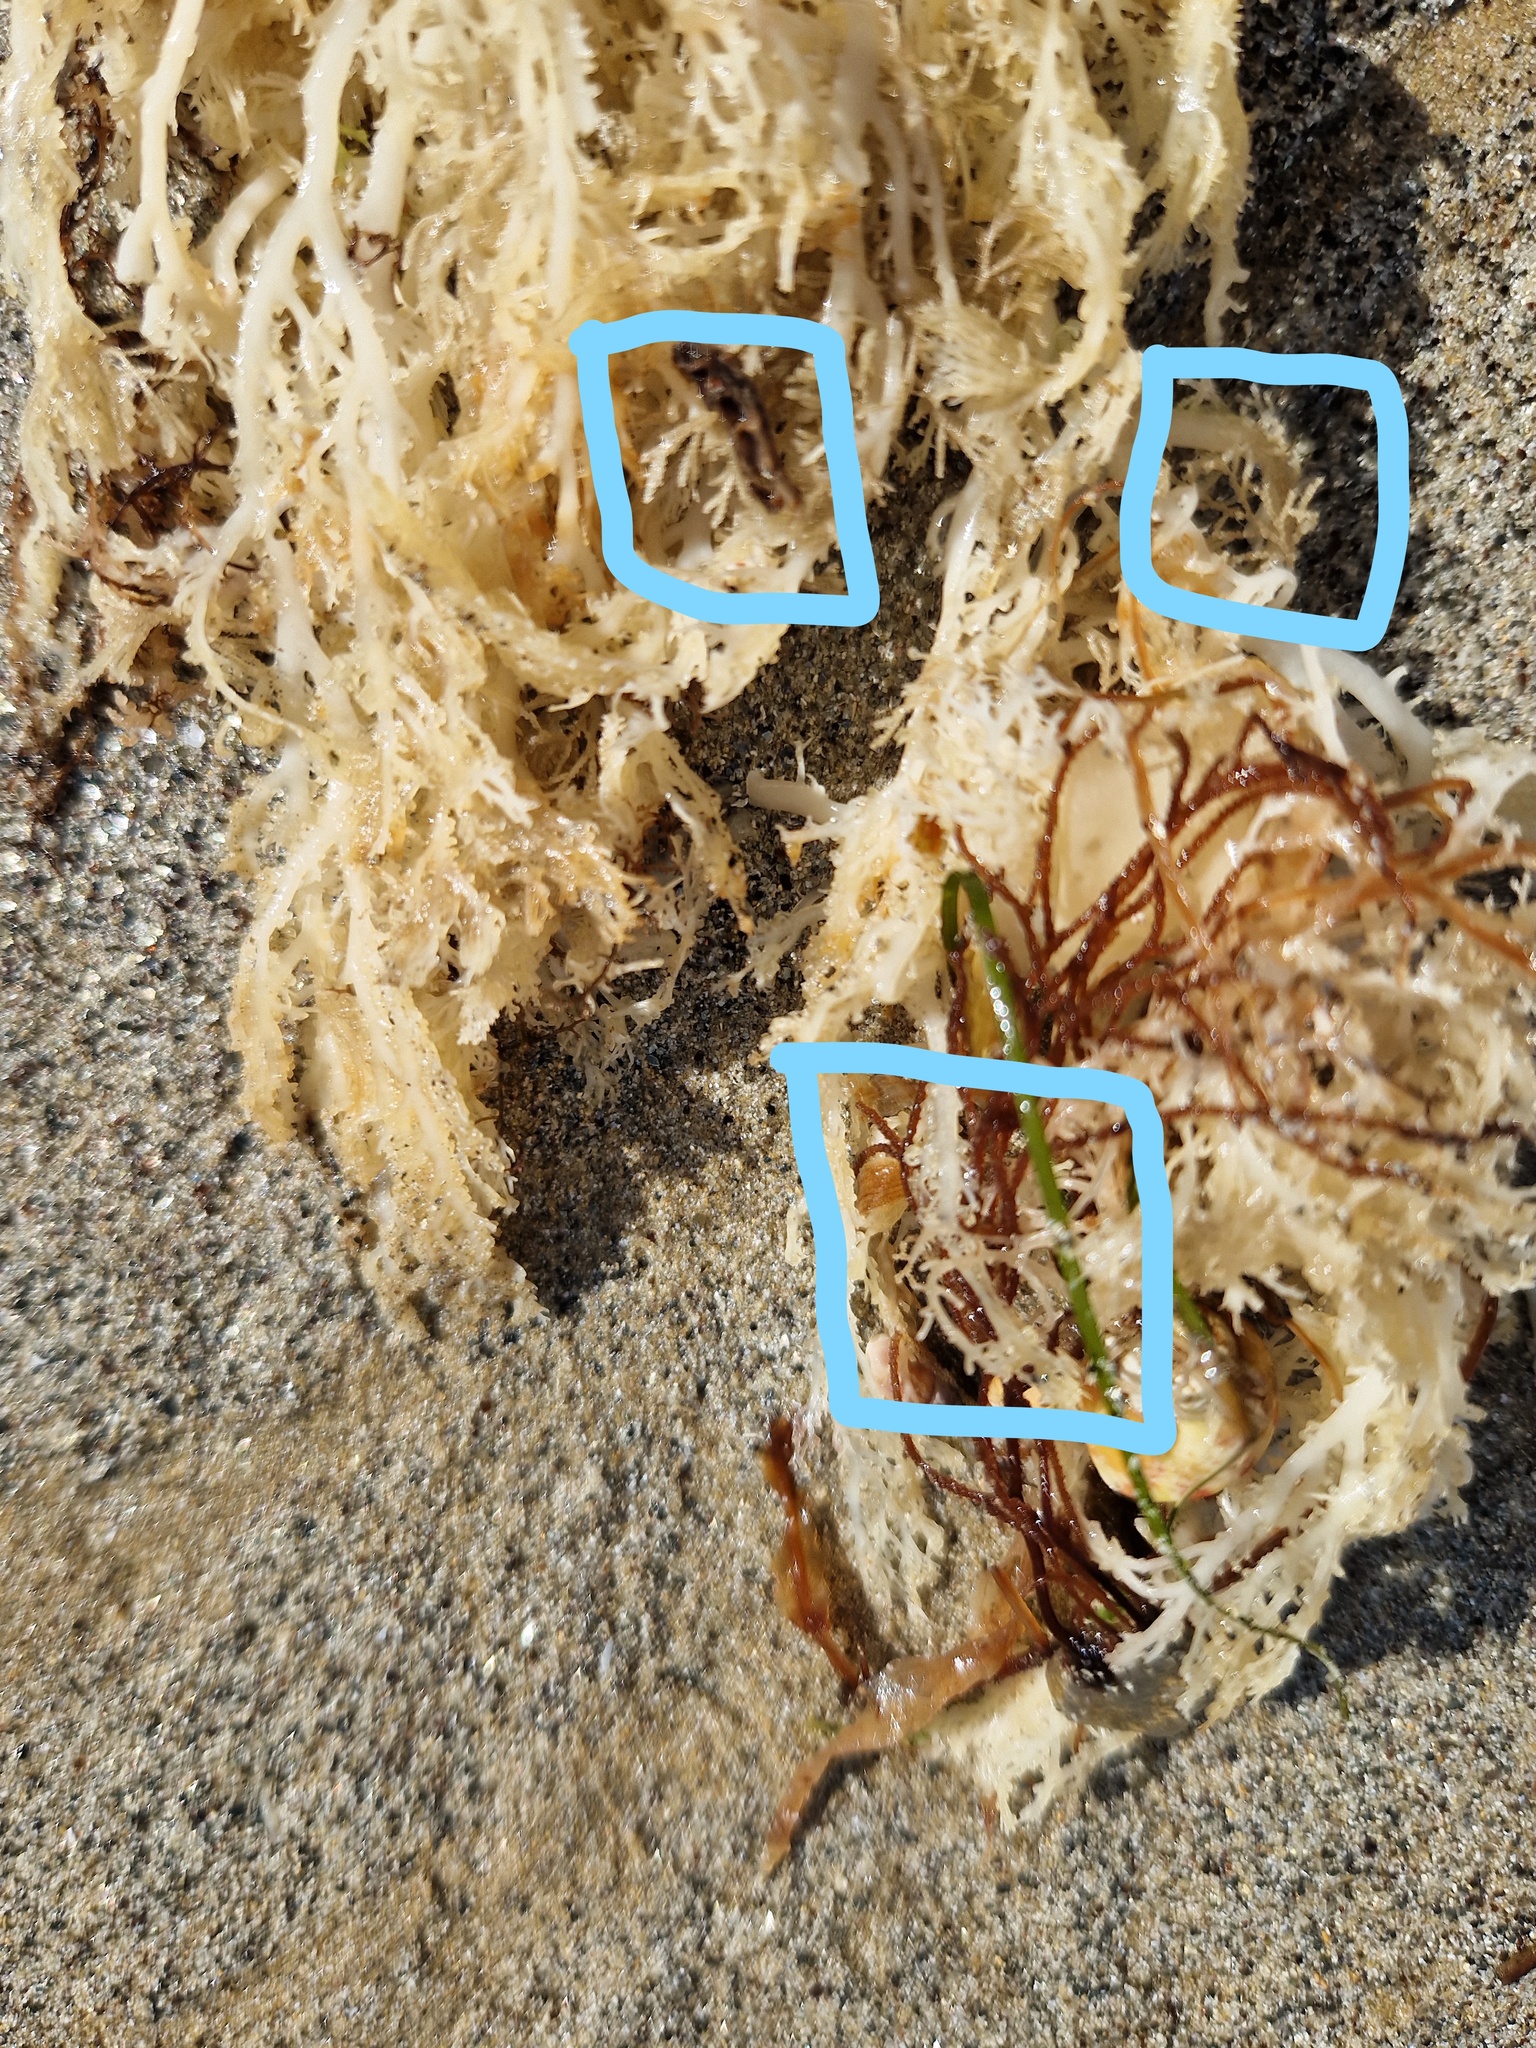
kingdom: Plantae
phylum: Rhodophyta
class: Florideophyceae
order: Gigartinales
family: Sphaerococcaceae
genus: Sphaerococcus
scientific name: Sphaerococcus coronopifolius
